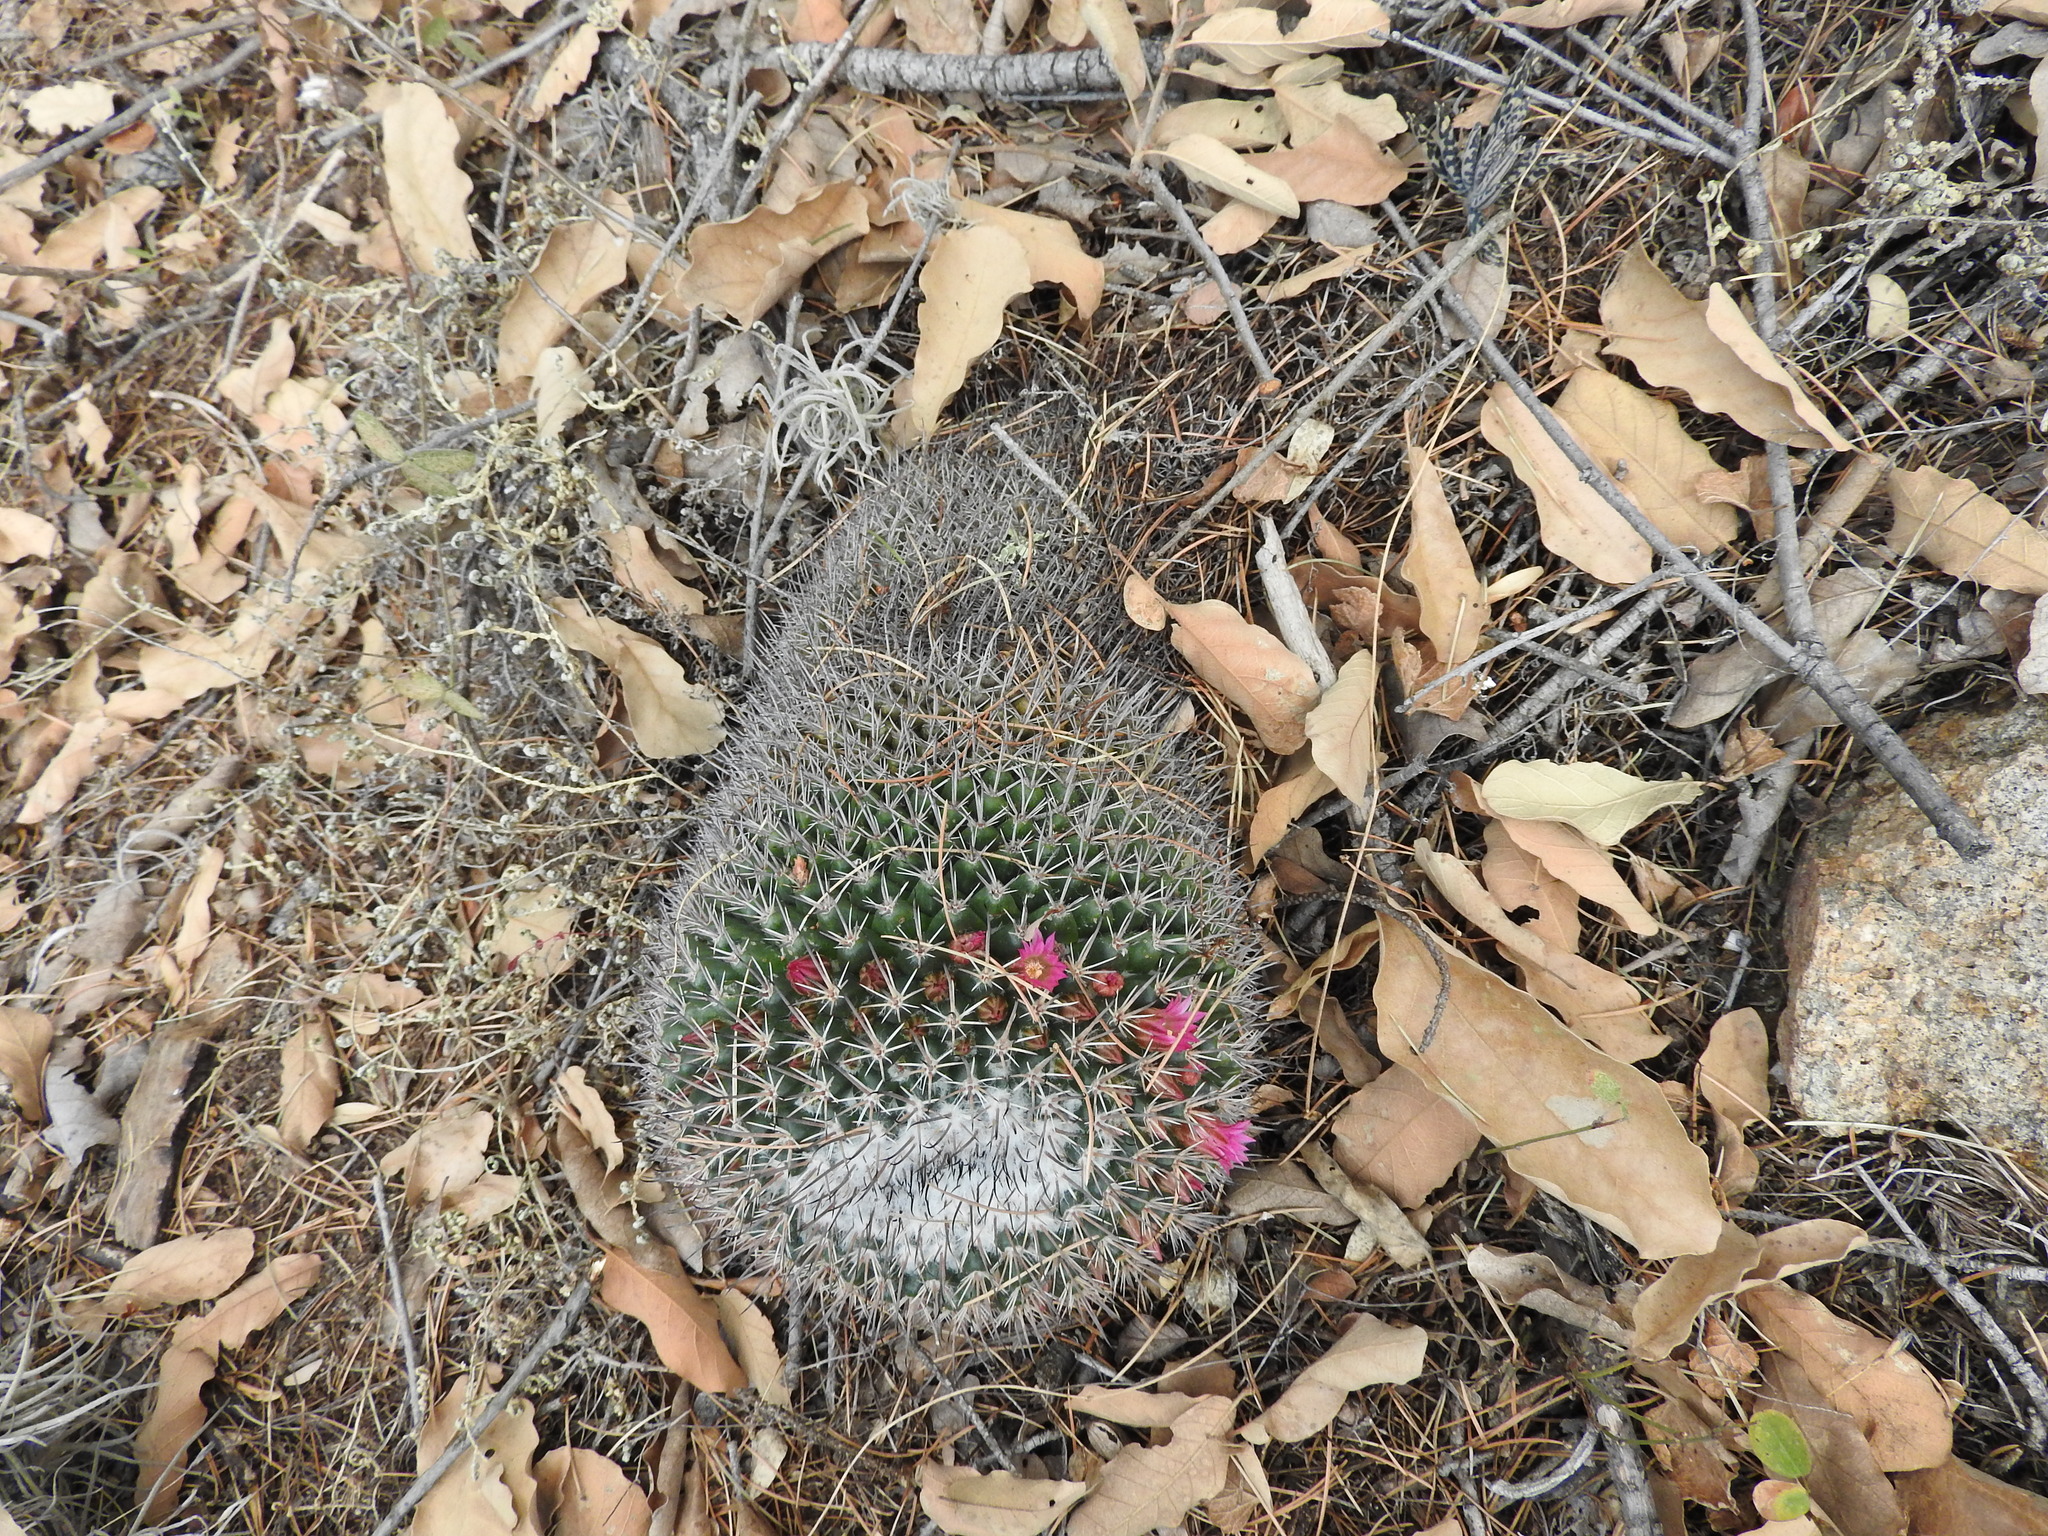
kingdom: Plantae
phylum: Tracheophyta
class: Magnoliopsida
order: Caryophyllales
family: Cactaceae
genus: Mammillaria
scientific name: Mammillaria petterssonii
